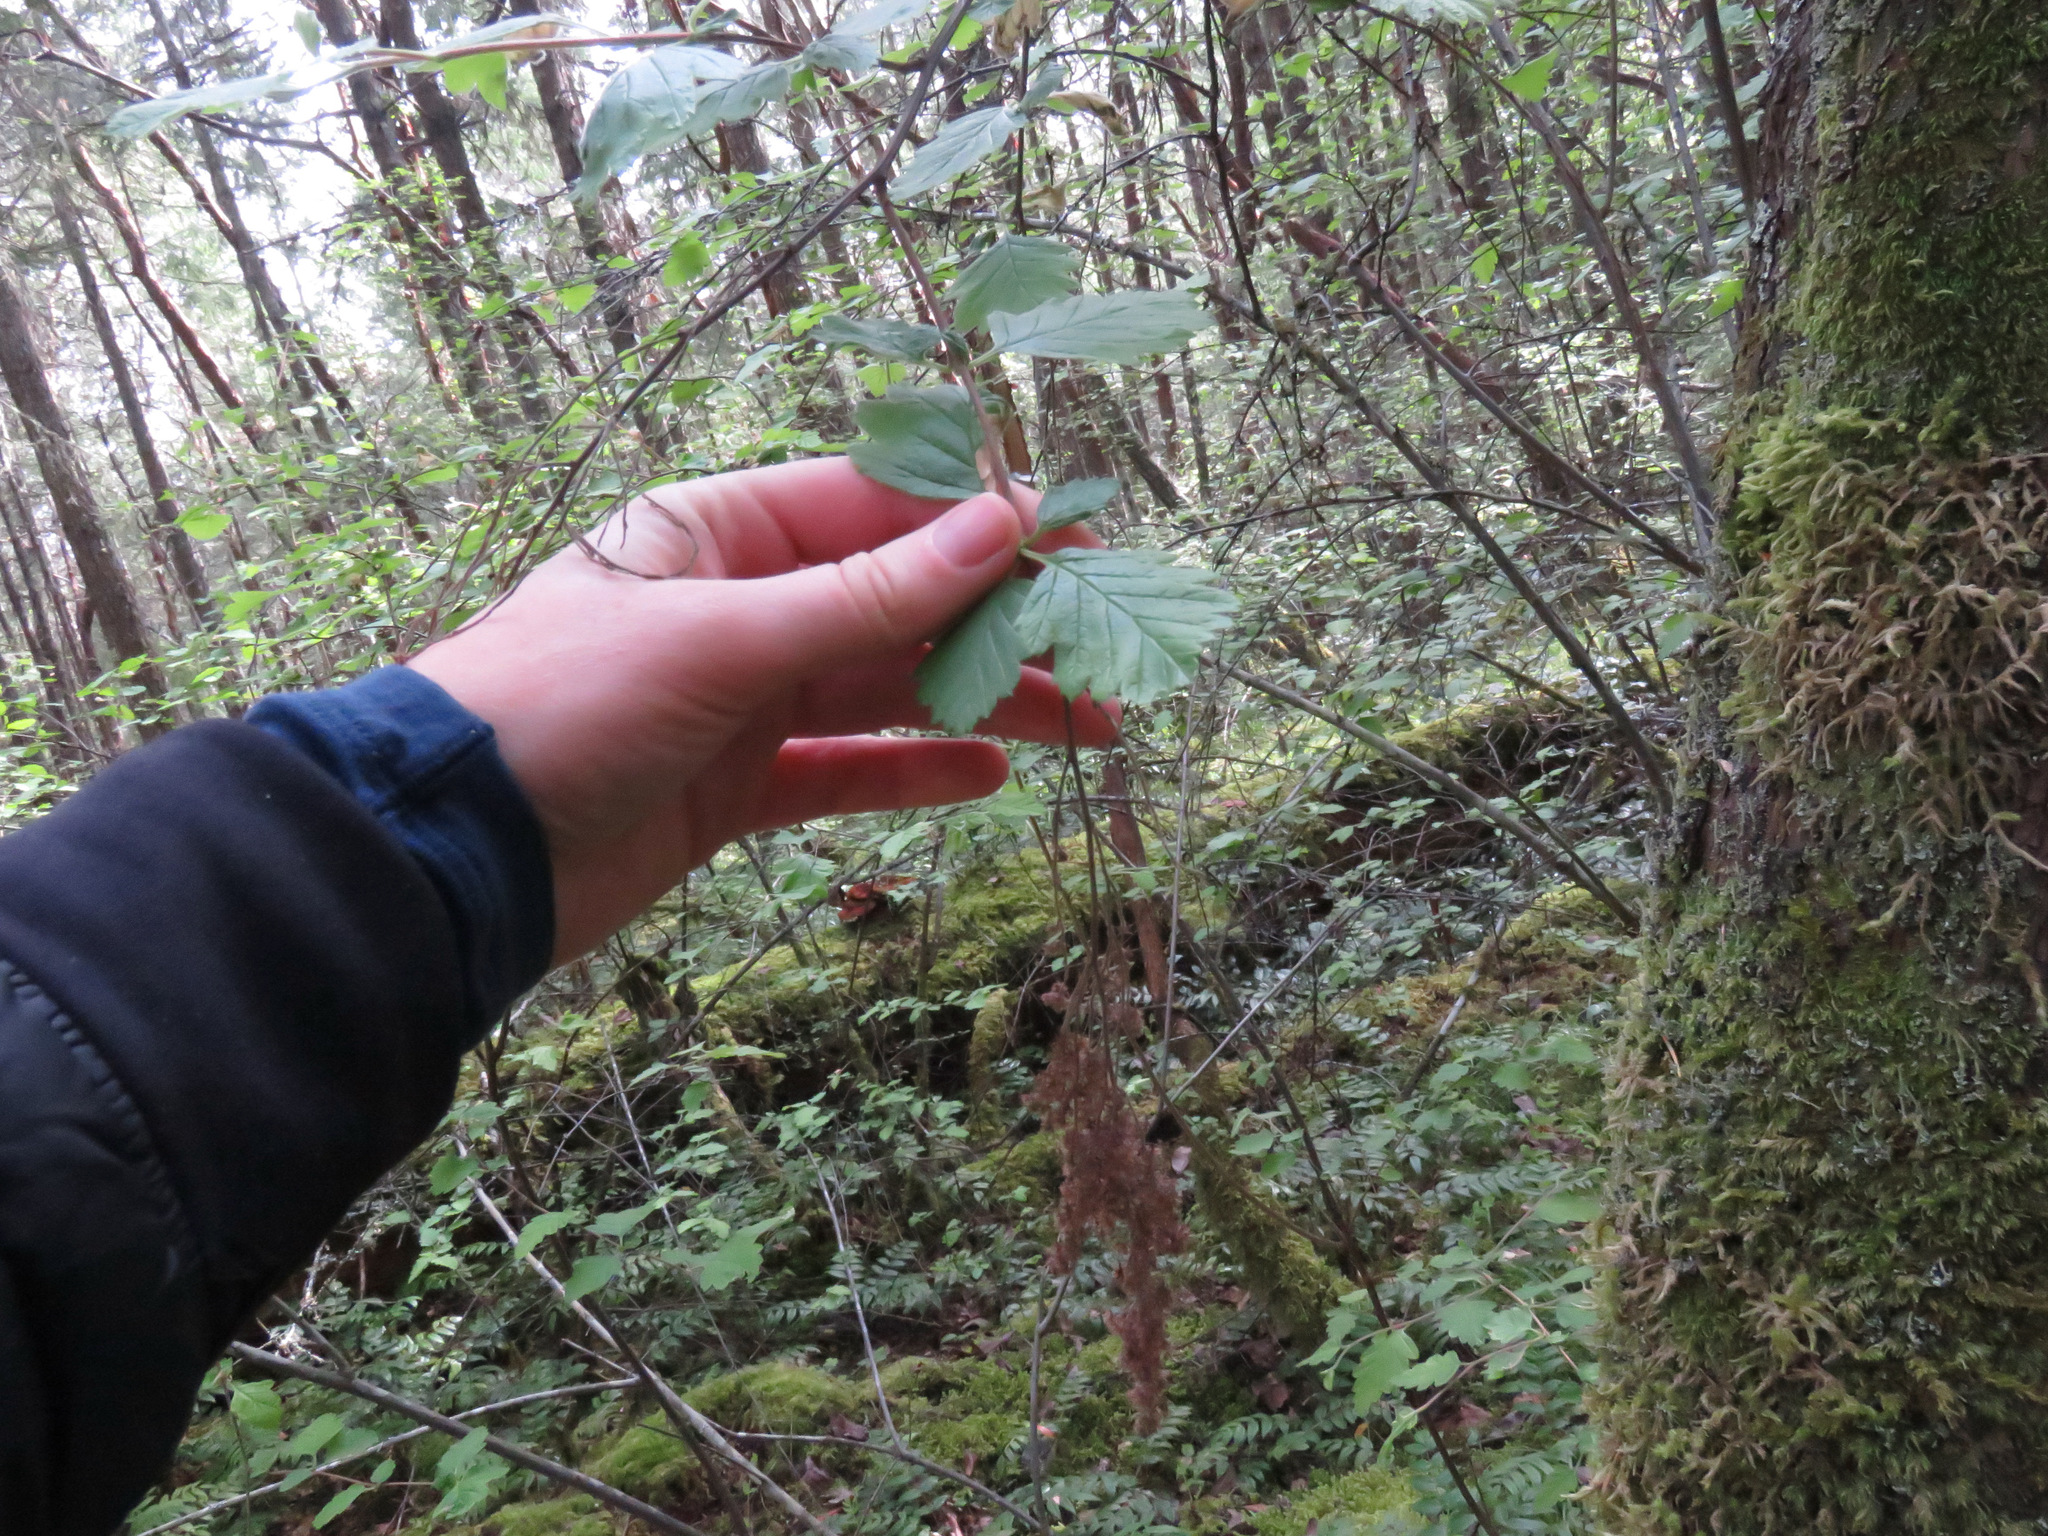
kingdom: Plantae
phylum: Tracheophyta
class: Magnoliopsida
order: Rosales
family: Rosaceae
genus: Holodiscus
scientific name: Holodiscus discolor
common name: Oceanspray
